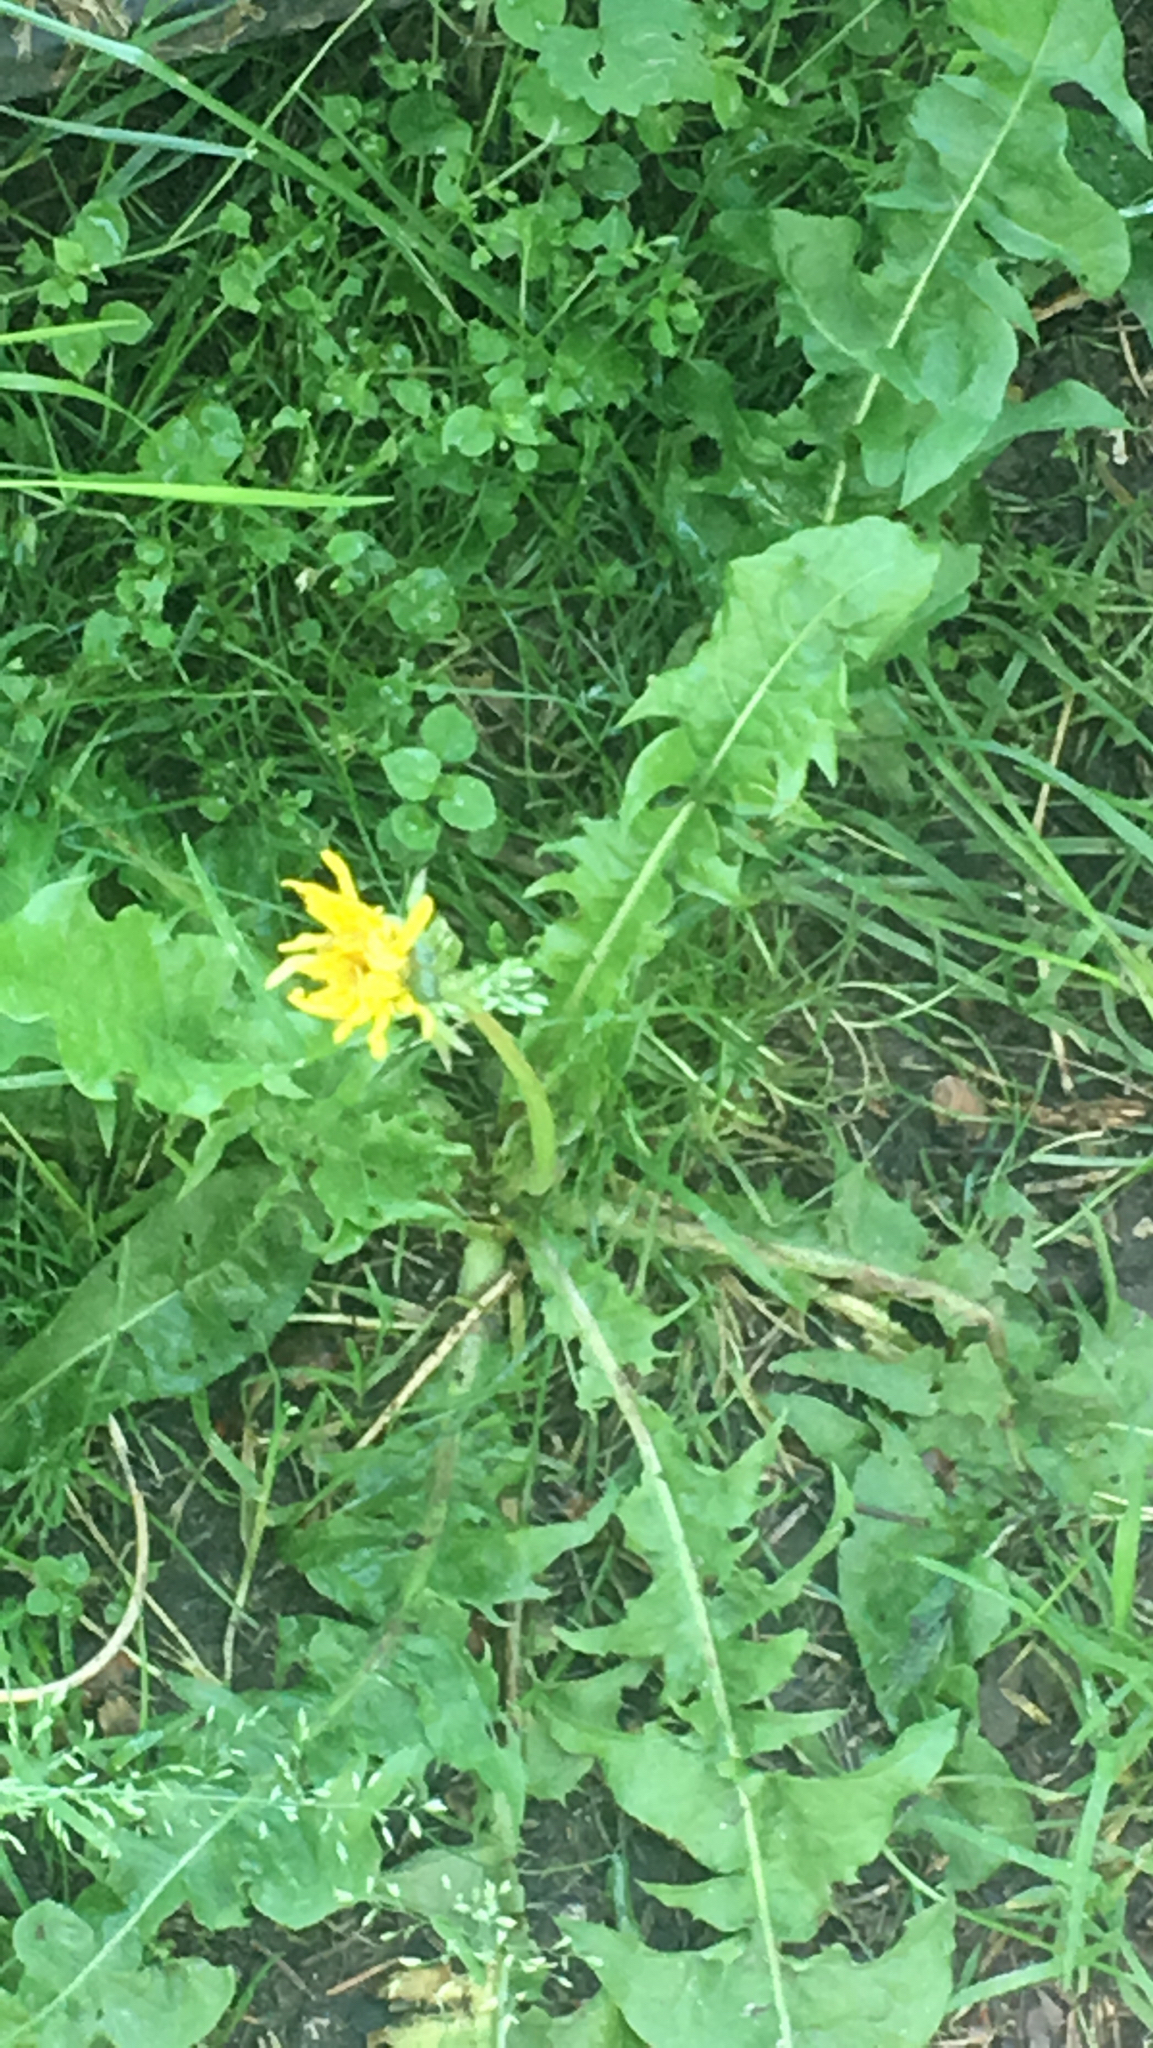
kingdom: Plantae
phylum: Tracheophyta
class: Magnoliopsida
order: Asterales
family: Asteraceae
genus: Taraxacum
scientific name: Taraxacum officinale
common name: Common dandelion
